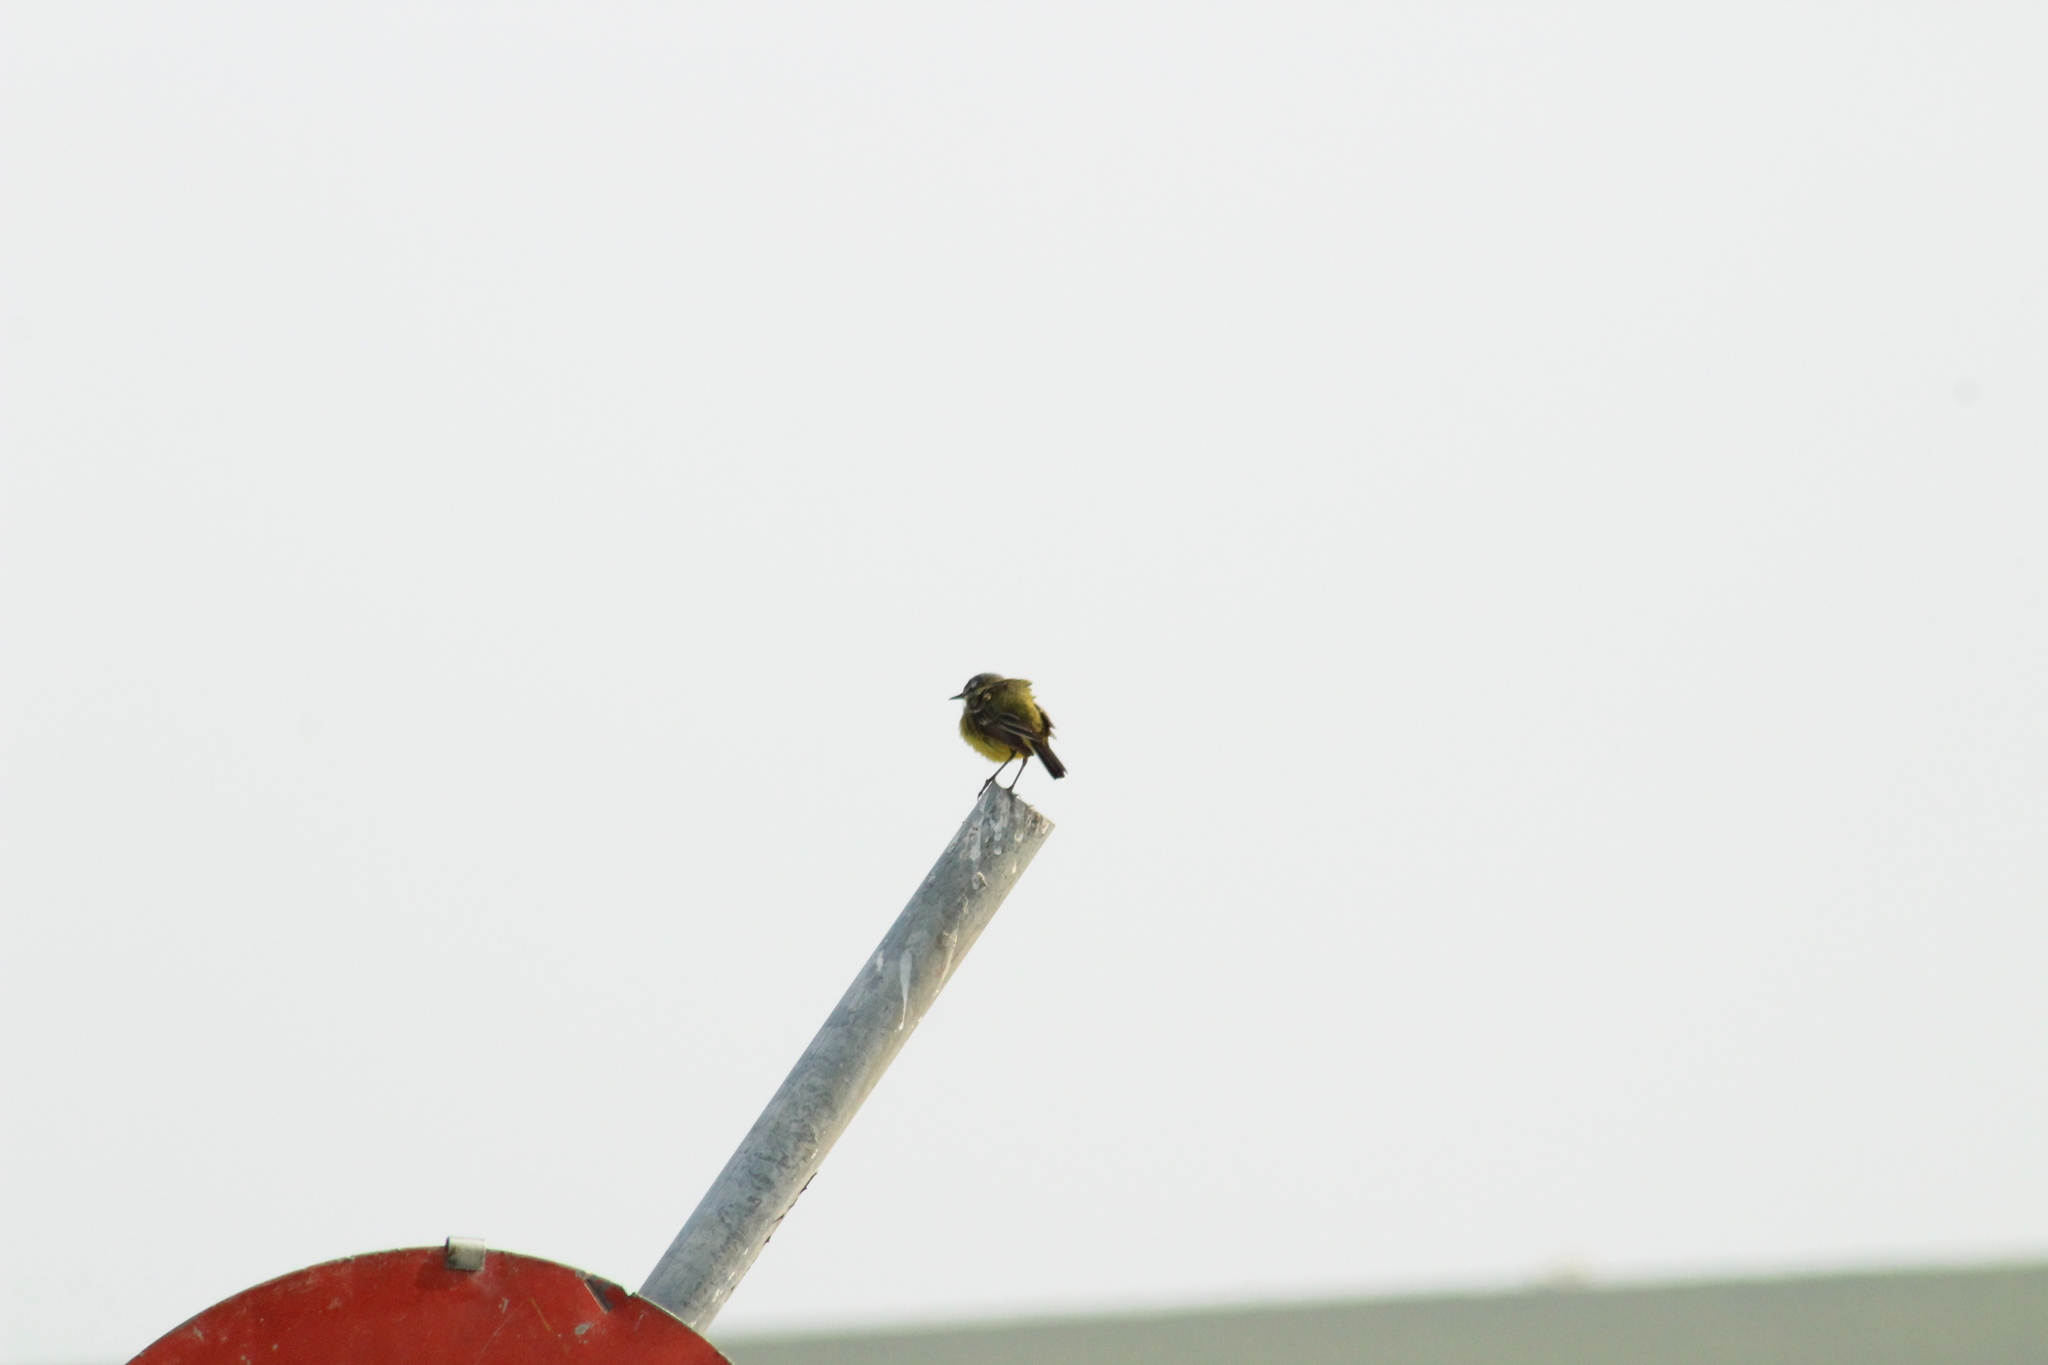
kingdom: Animalia
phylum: Chordata
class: Aves
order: Passeriformes
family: Motacillidae
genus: Motacilla
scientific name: Motacilla flava
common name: Western yellow wagtail
